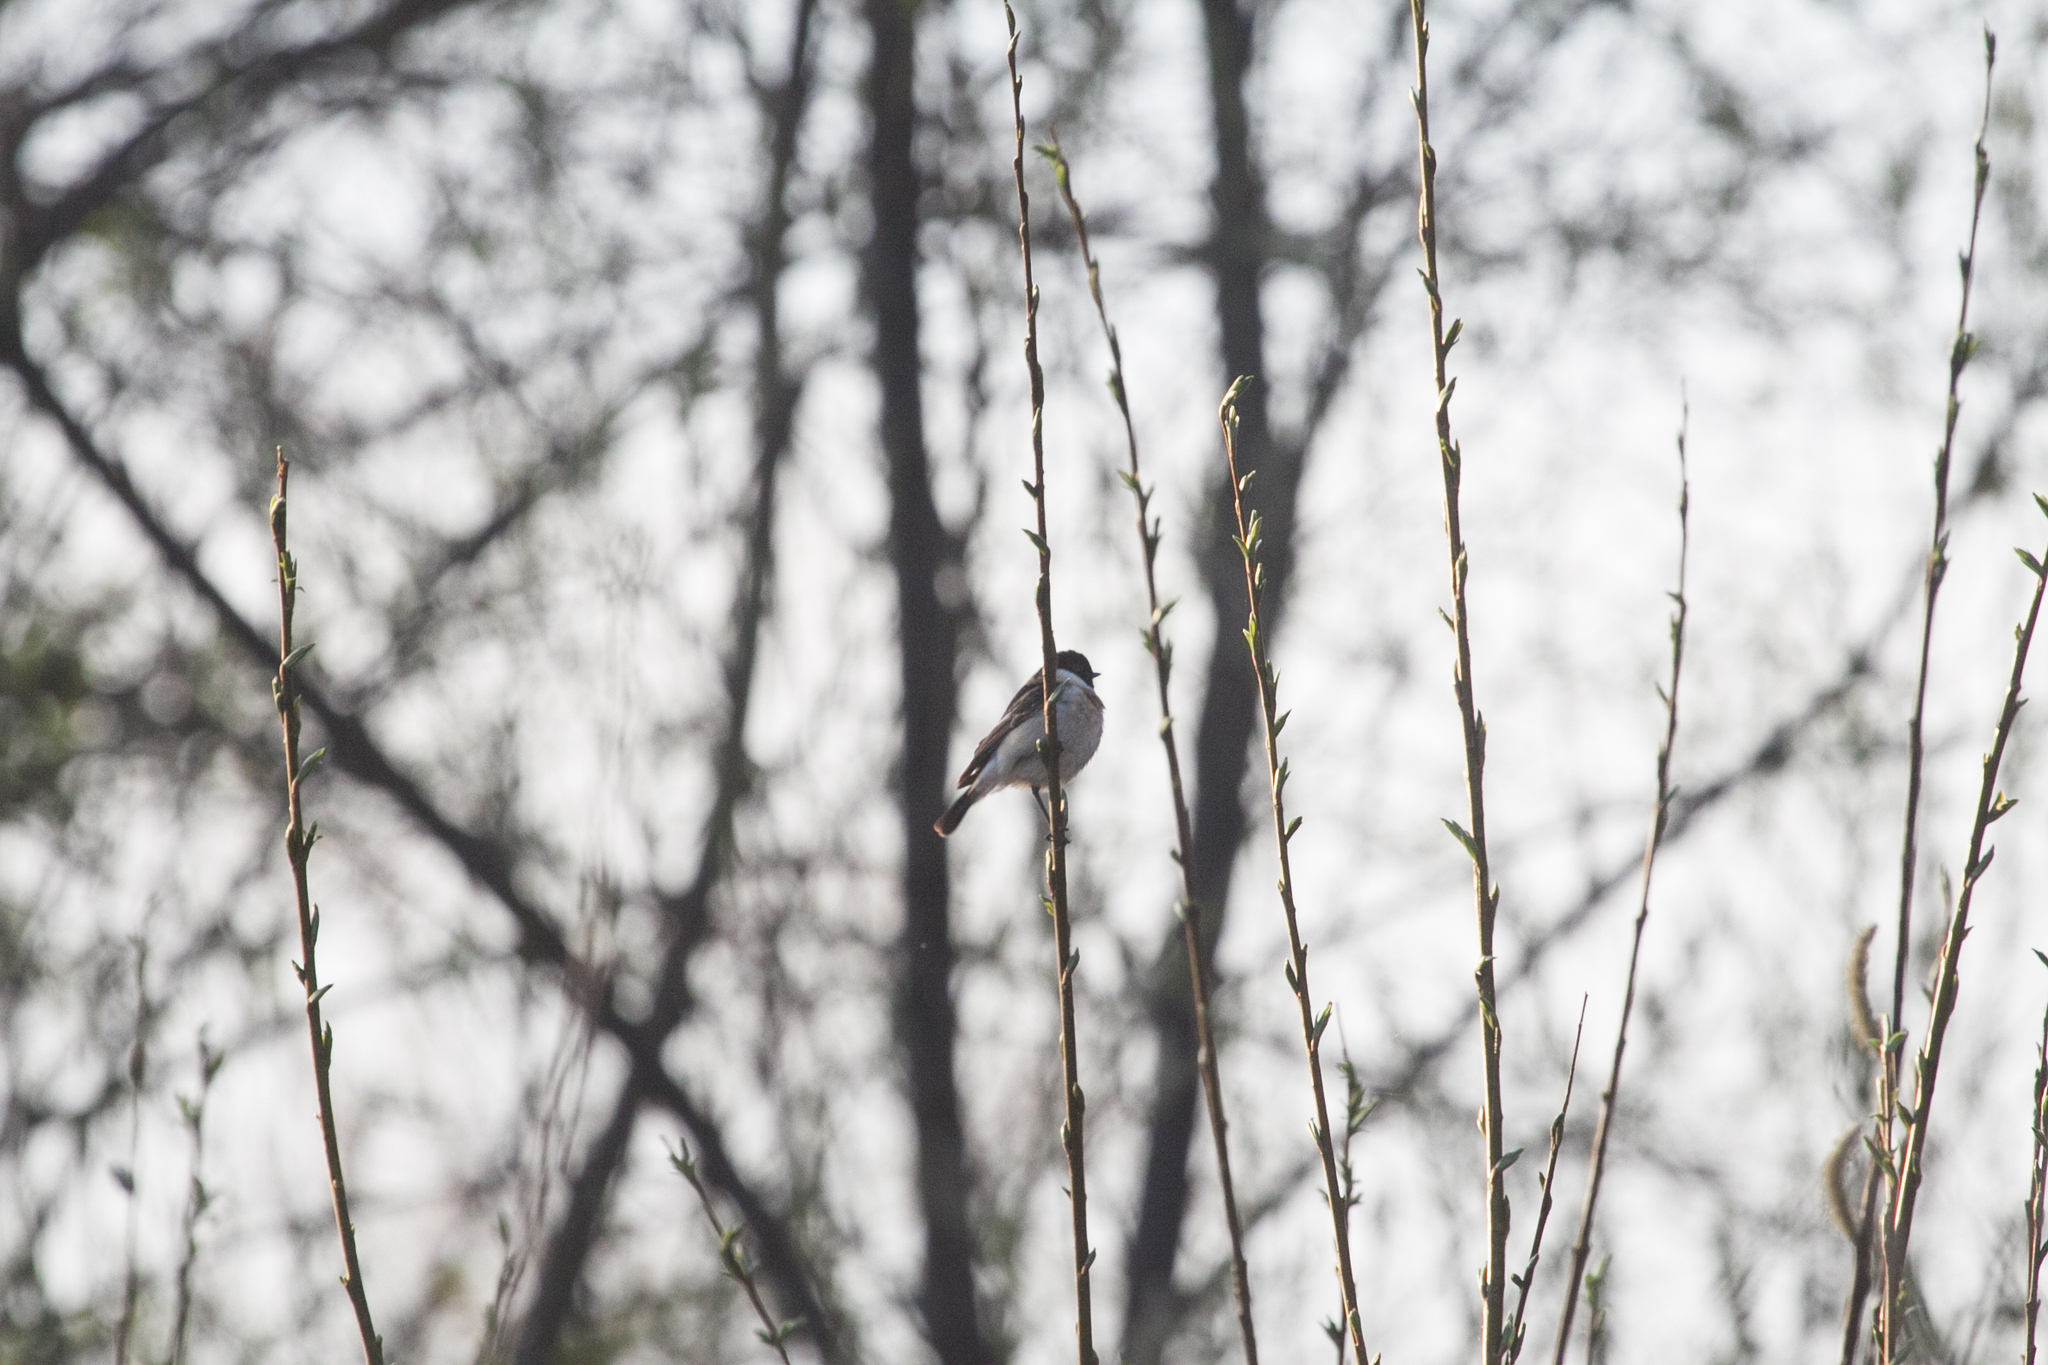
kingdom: Animalia
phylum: Chordata
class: Aves
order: Passeriformes
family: Muscicapidae
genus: Saxicola
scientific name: Saxicola maurus
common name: Siberian stonechat
